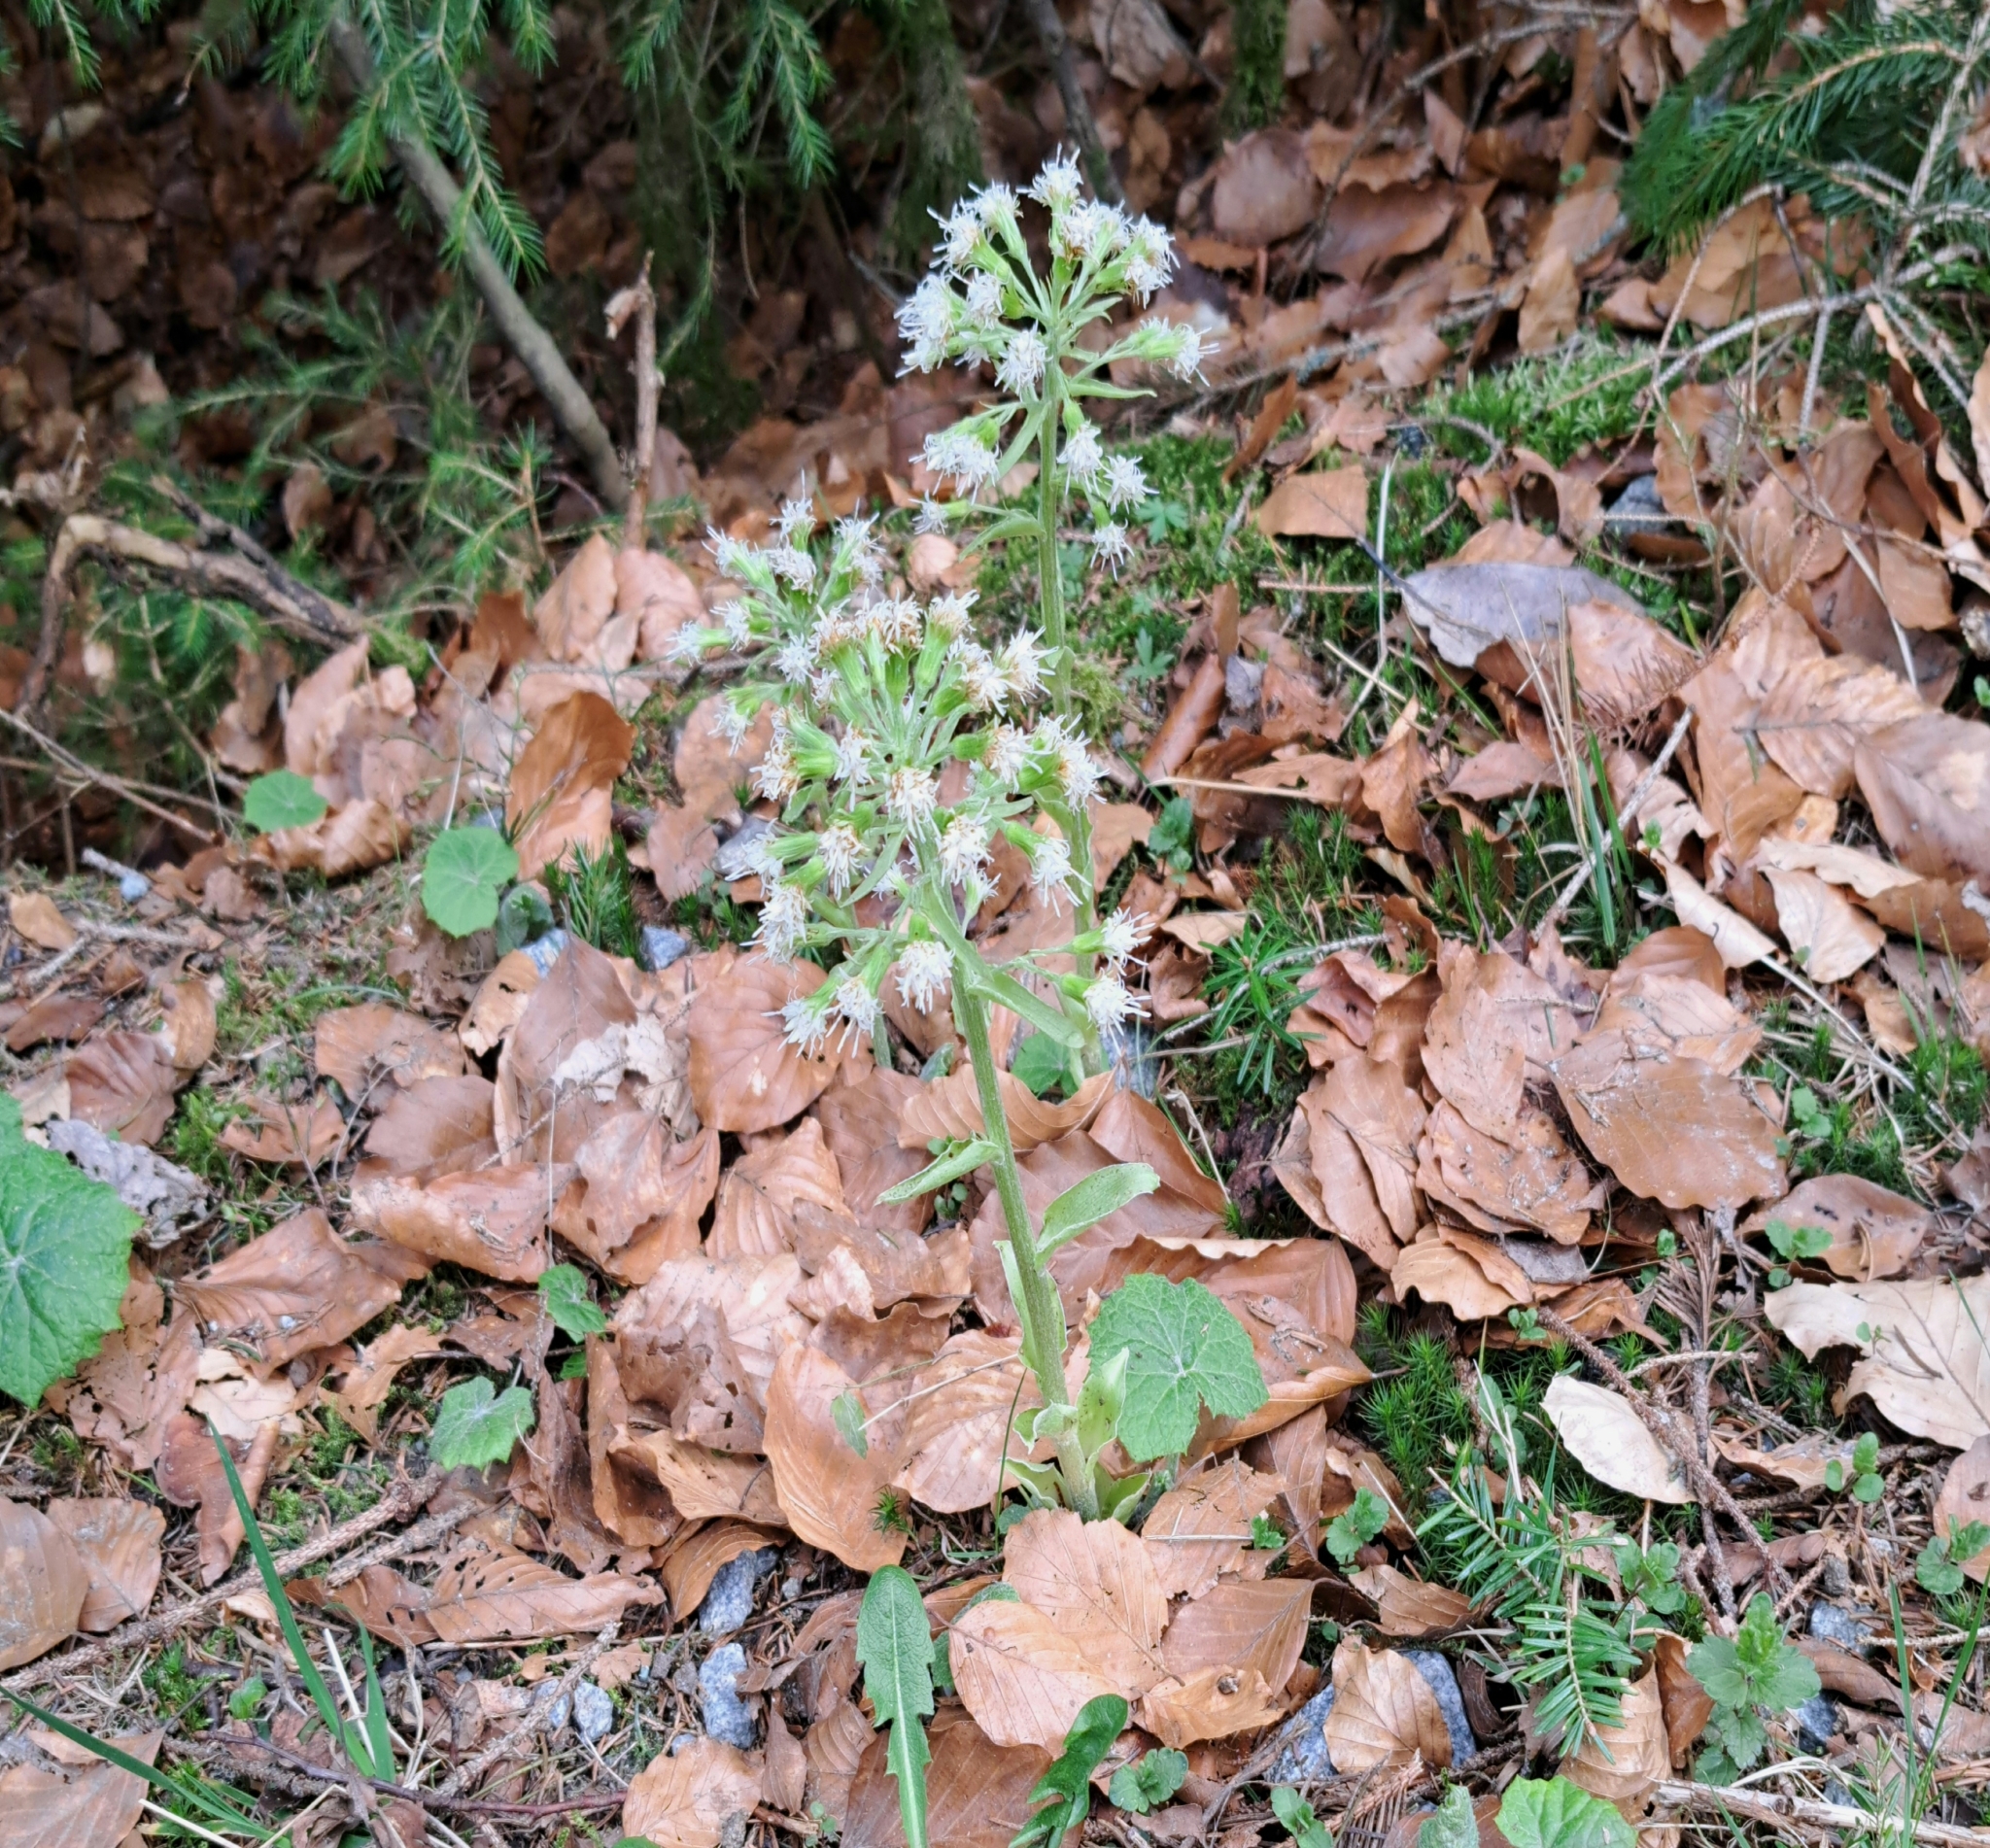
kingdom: Plantae
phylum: Tracheophyta
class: Magnoliopsida
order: Asterales
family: Asteraceae
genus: Petasites
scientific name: Petasites albus
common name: White butterbur
